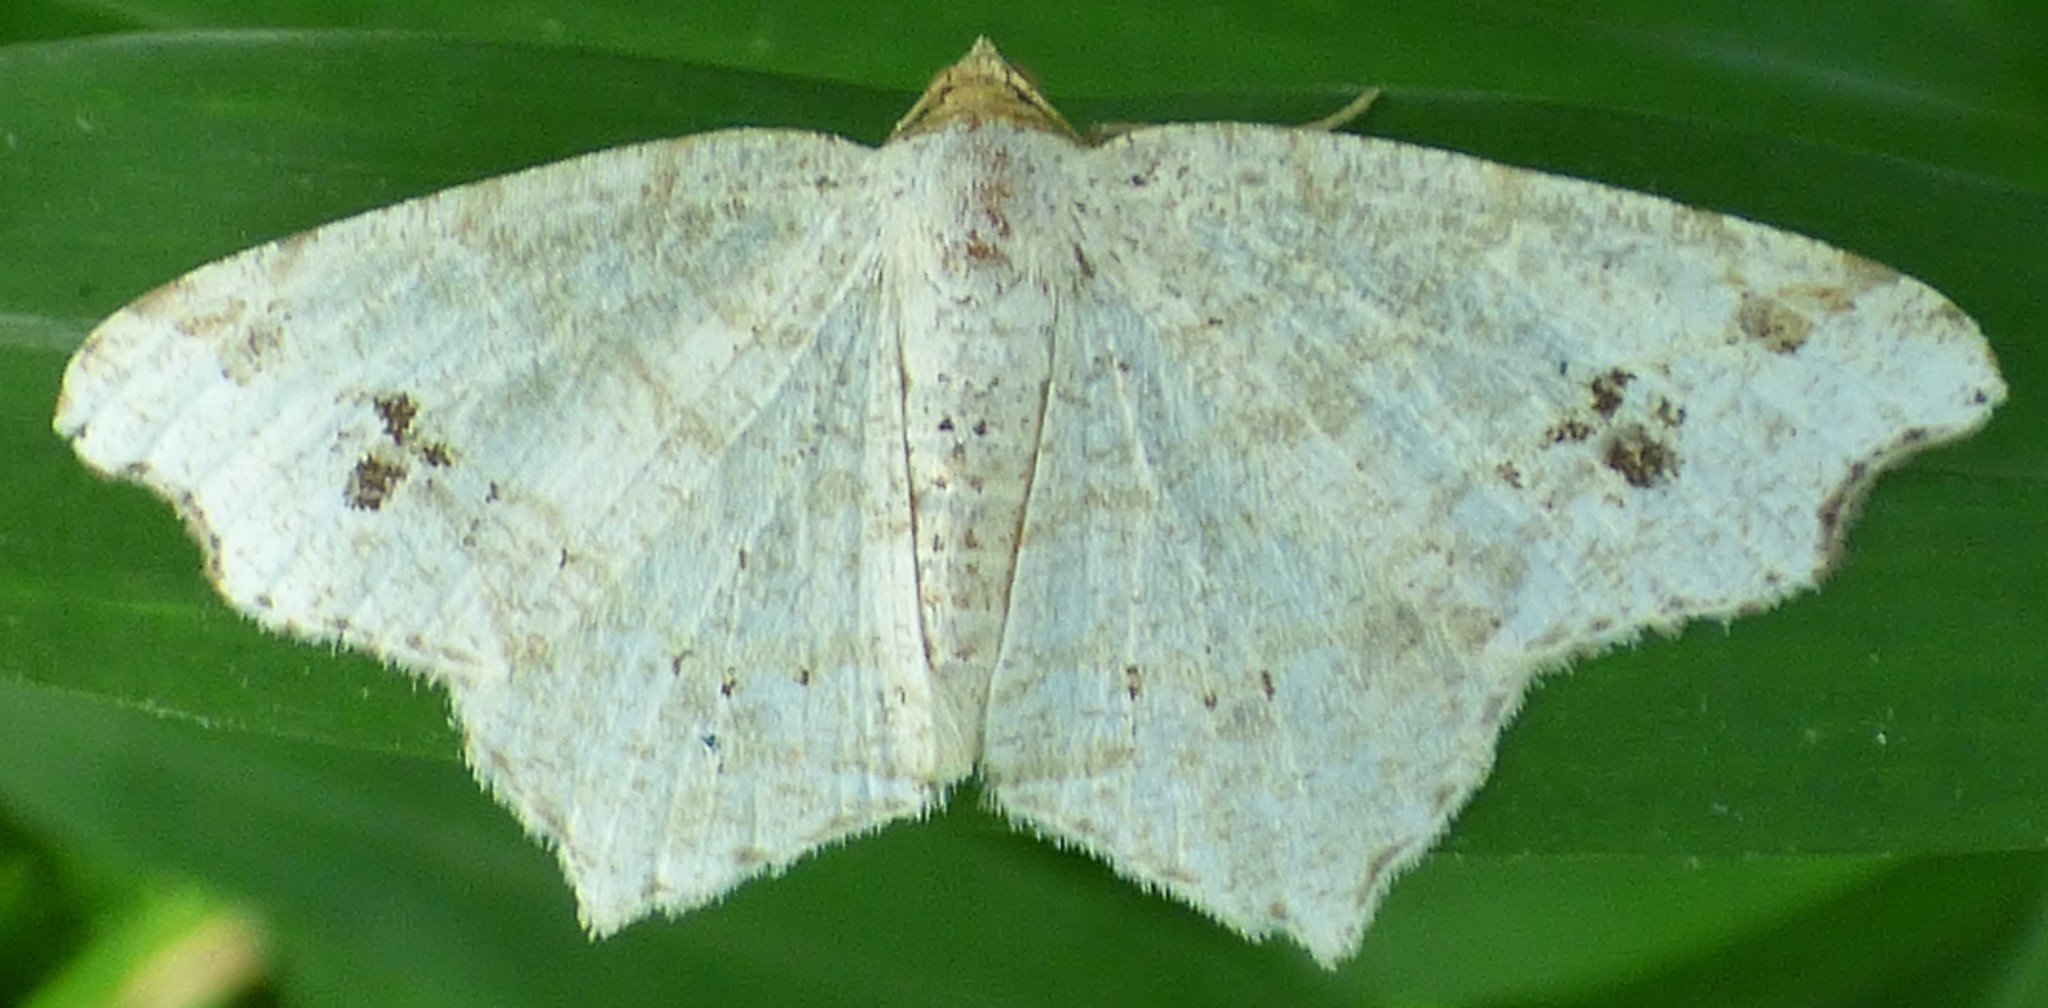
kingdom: Animalia
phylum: Arthropoda
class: Insecta
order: Lepidoptera
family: Geometridae
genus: Macaria
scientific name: Macaria aemulataria
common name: Common angle
